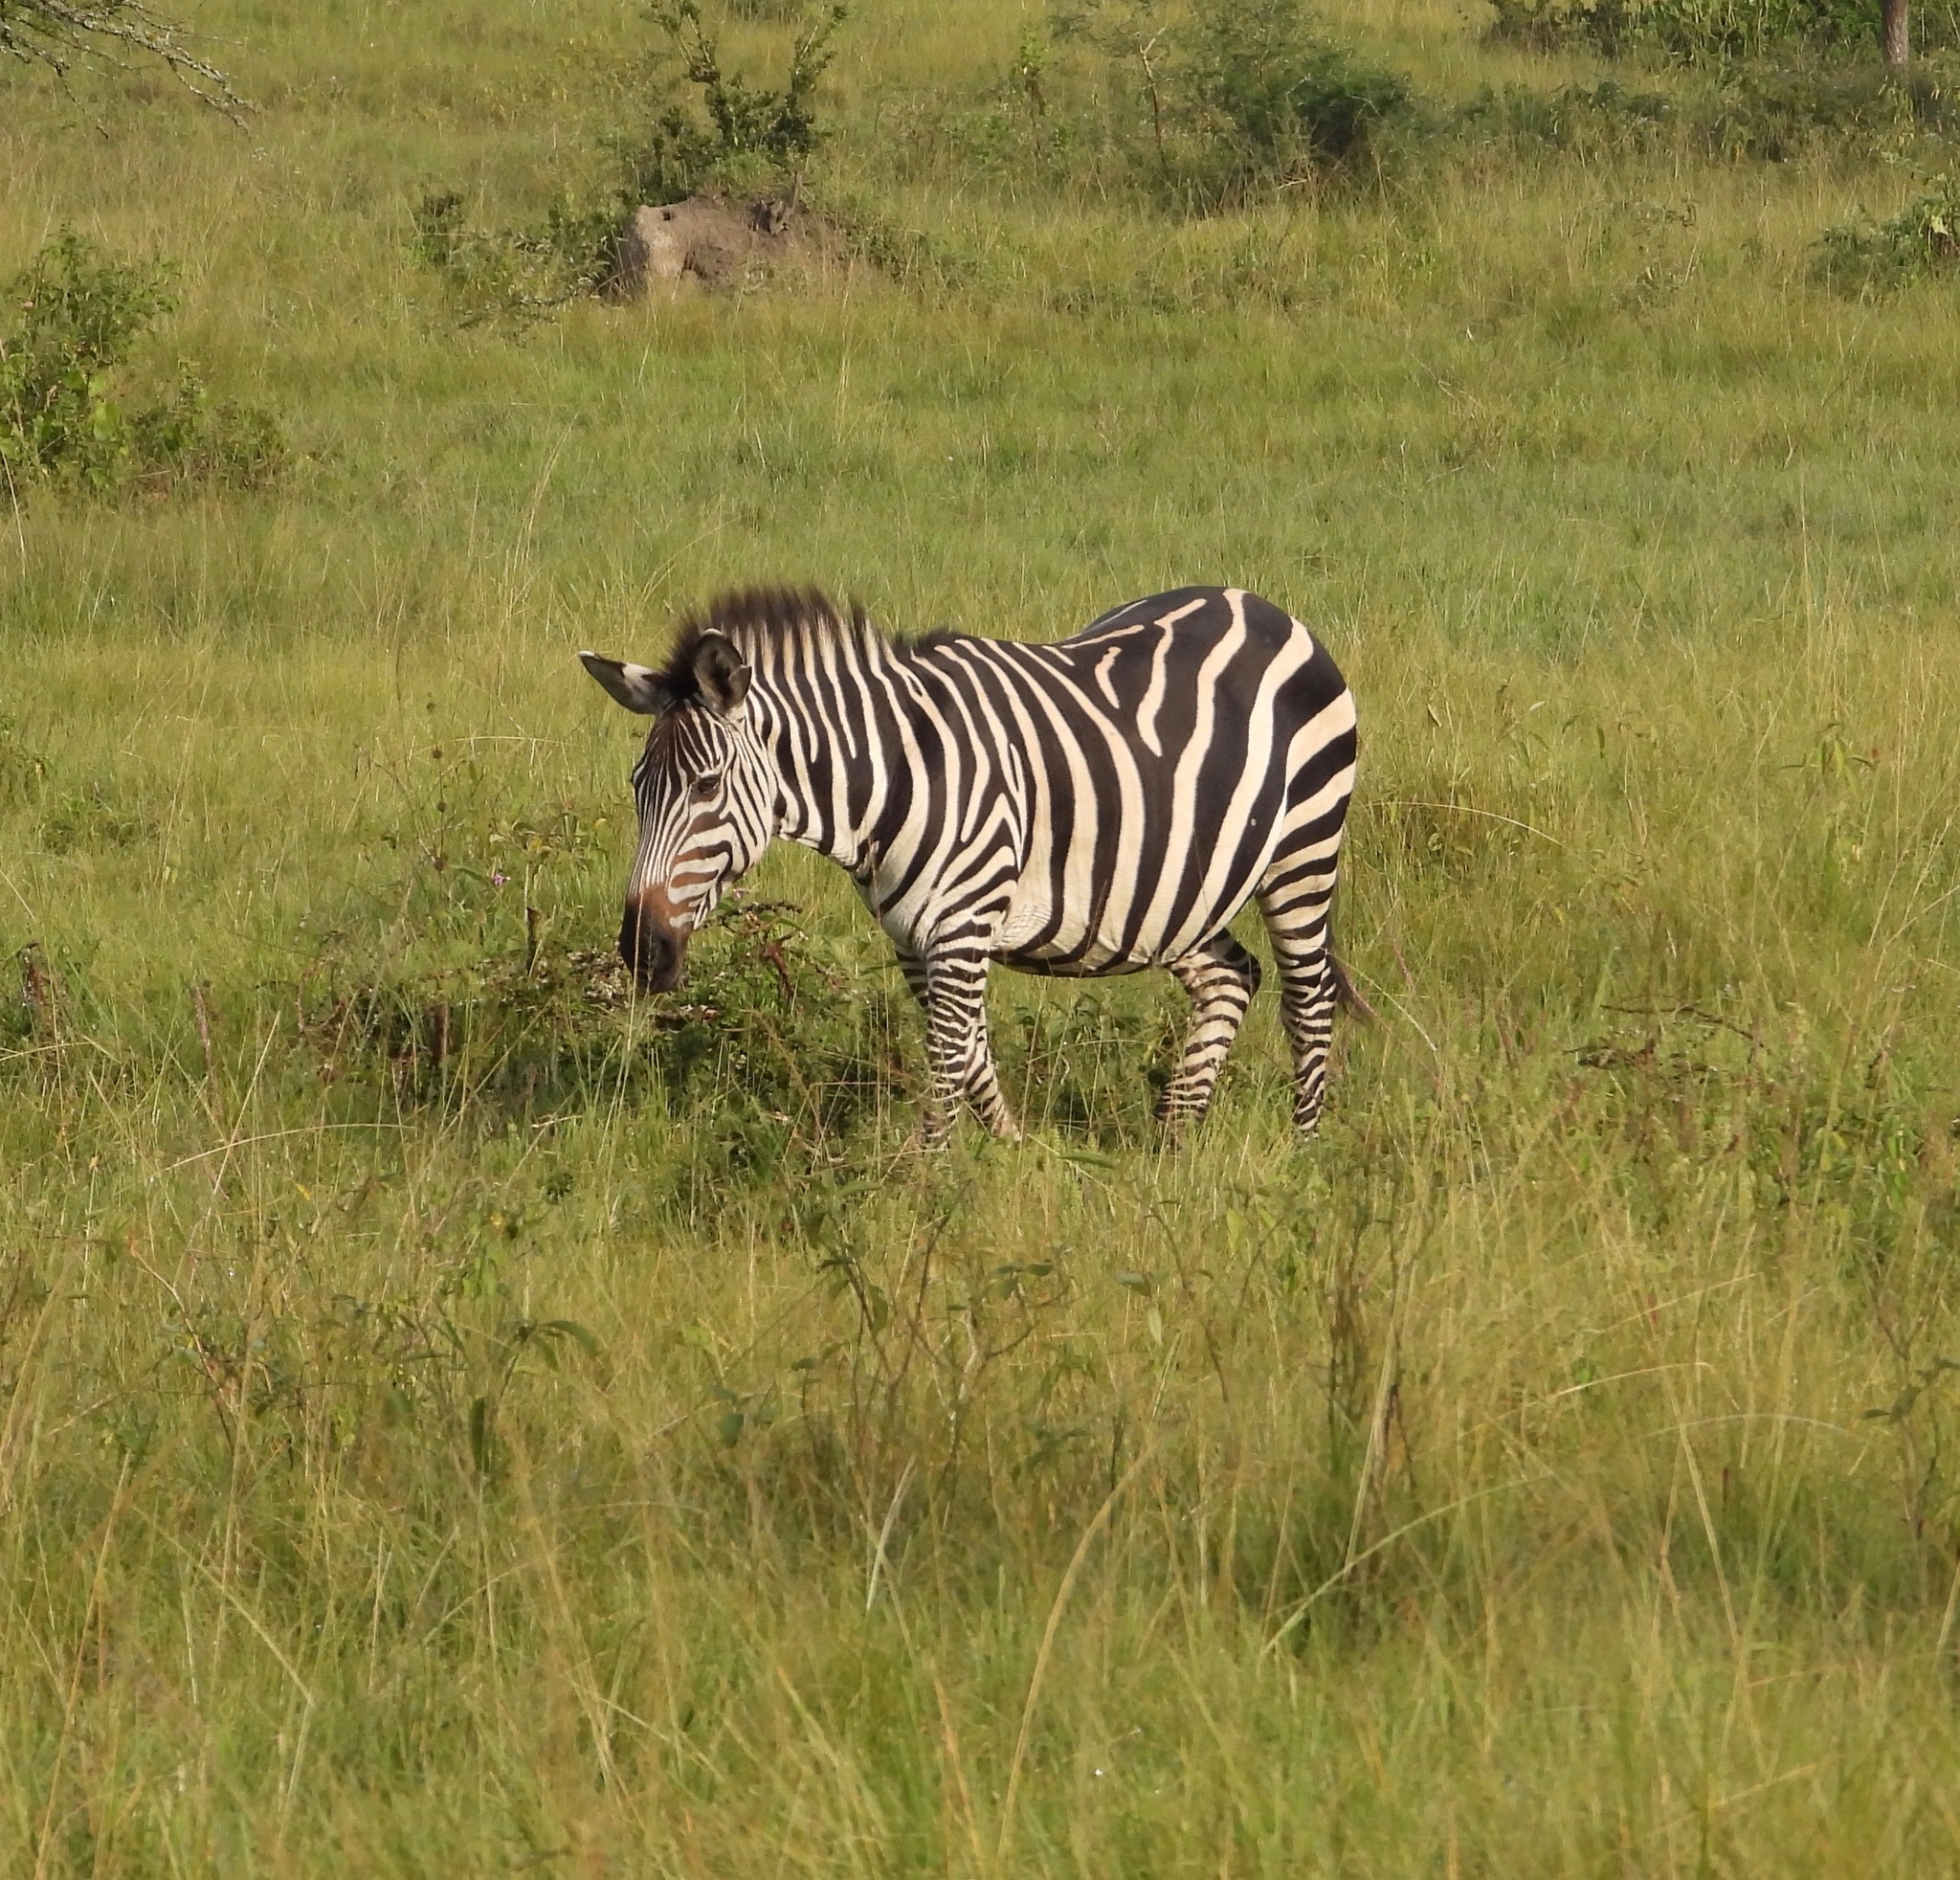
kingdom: Animalia
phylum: Chordata
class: Mammalia
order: Perissodactyla
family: Equidae
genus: Equus
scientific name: Equus quagga
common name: Plains zebra
